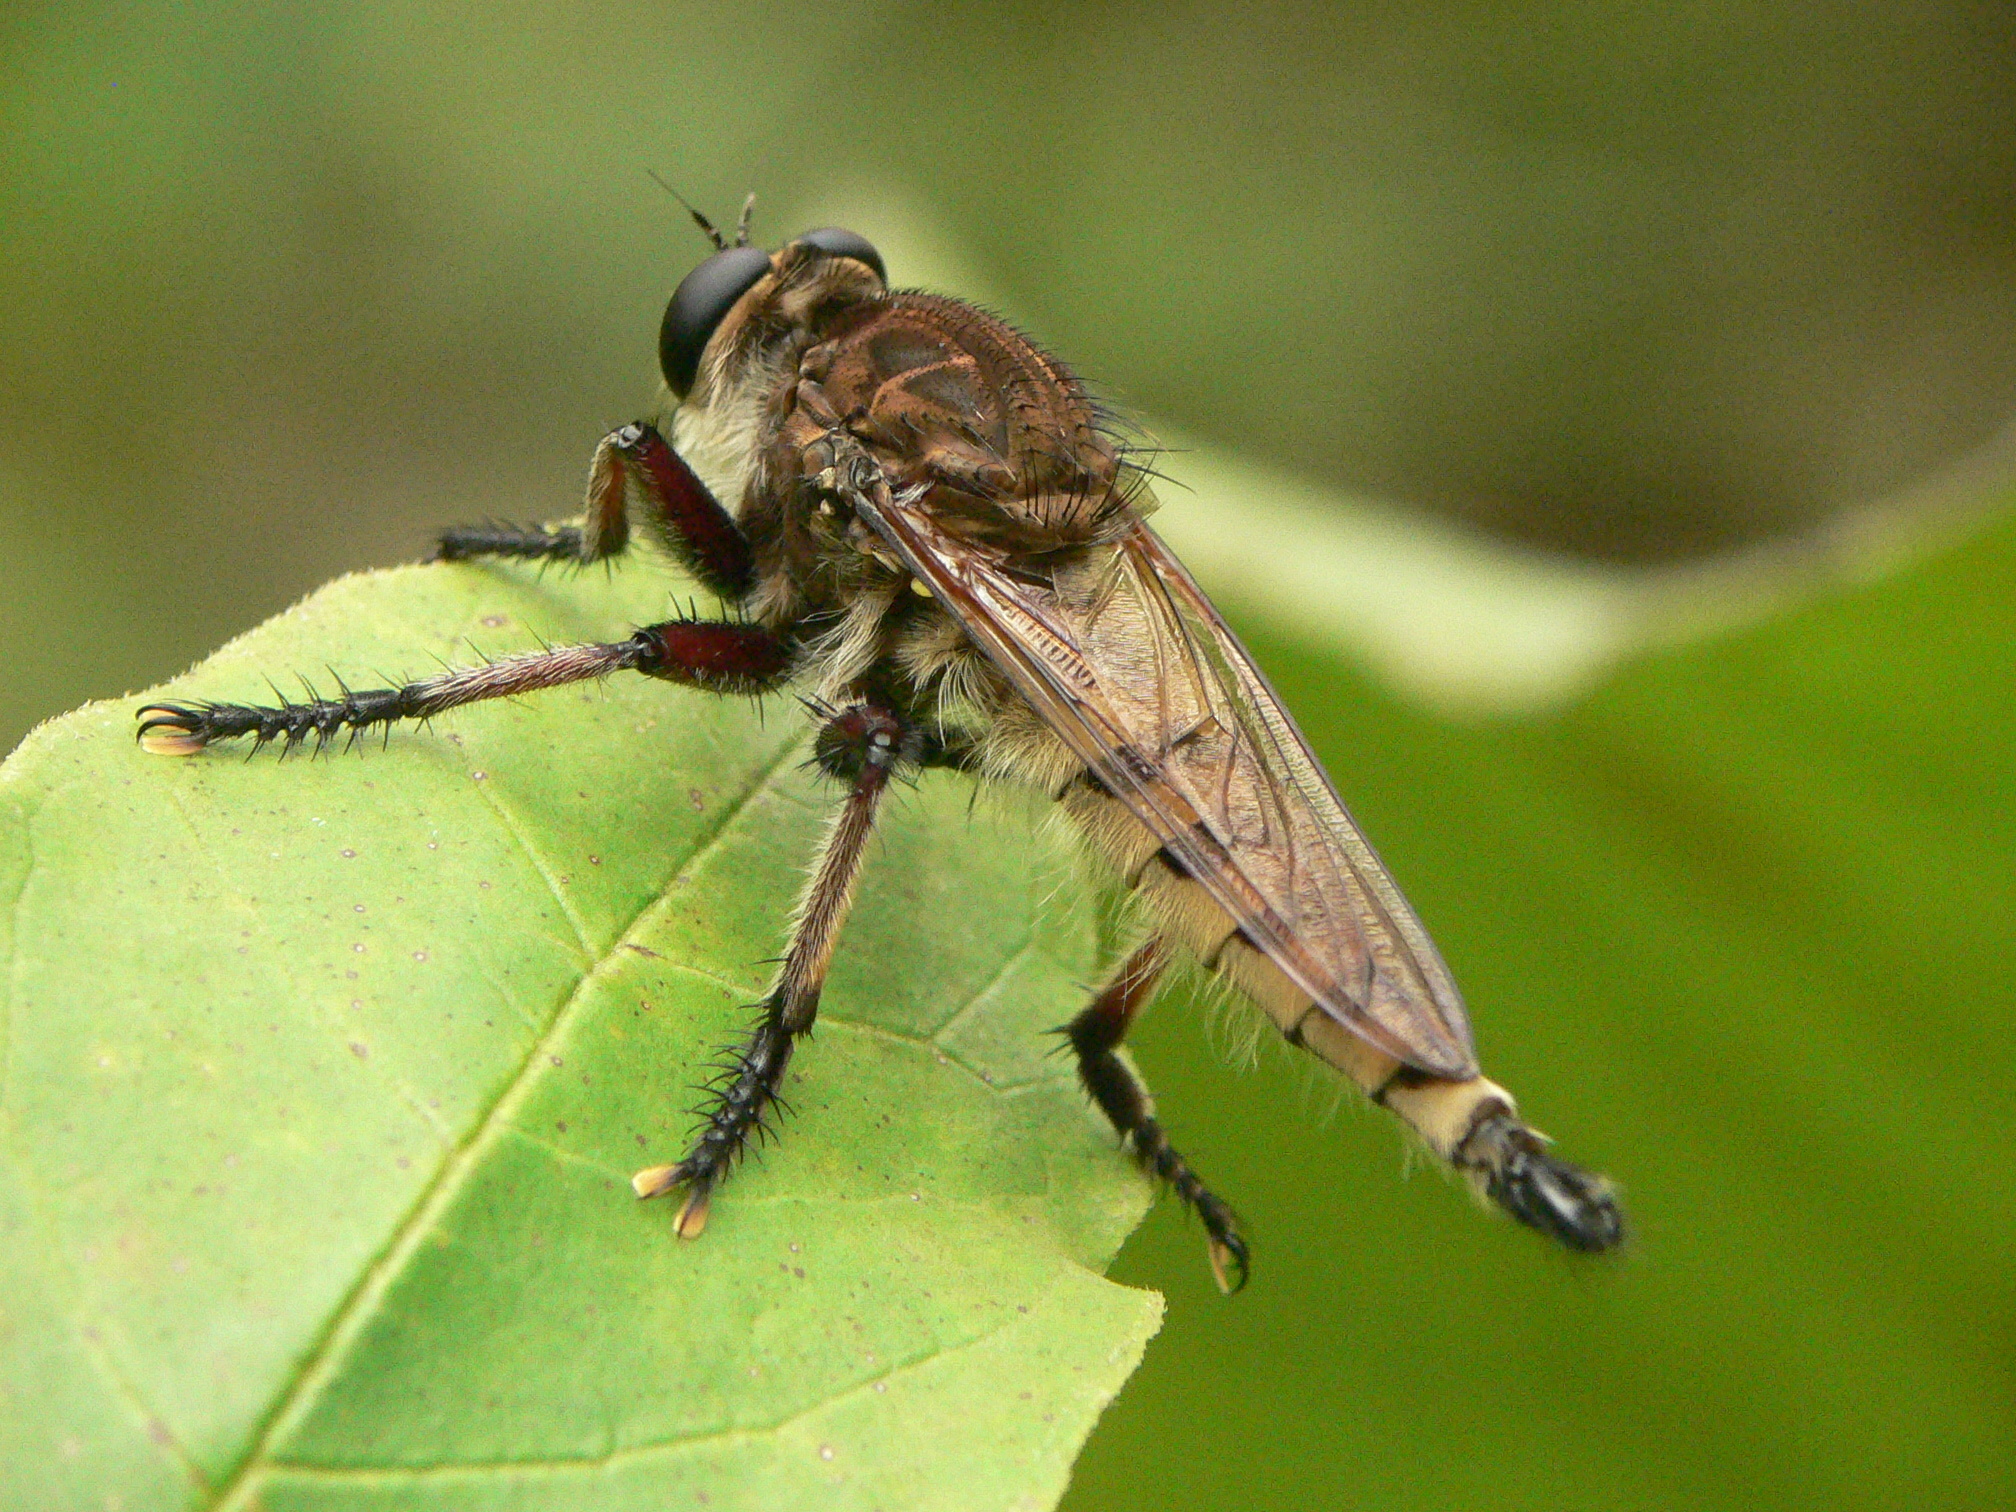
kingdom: Animalia
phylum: Arthropoda
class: Insecta
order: Diptera
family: Asilidae
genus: Promachus
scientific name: Promachus hinei
